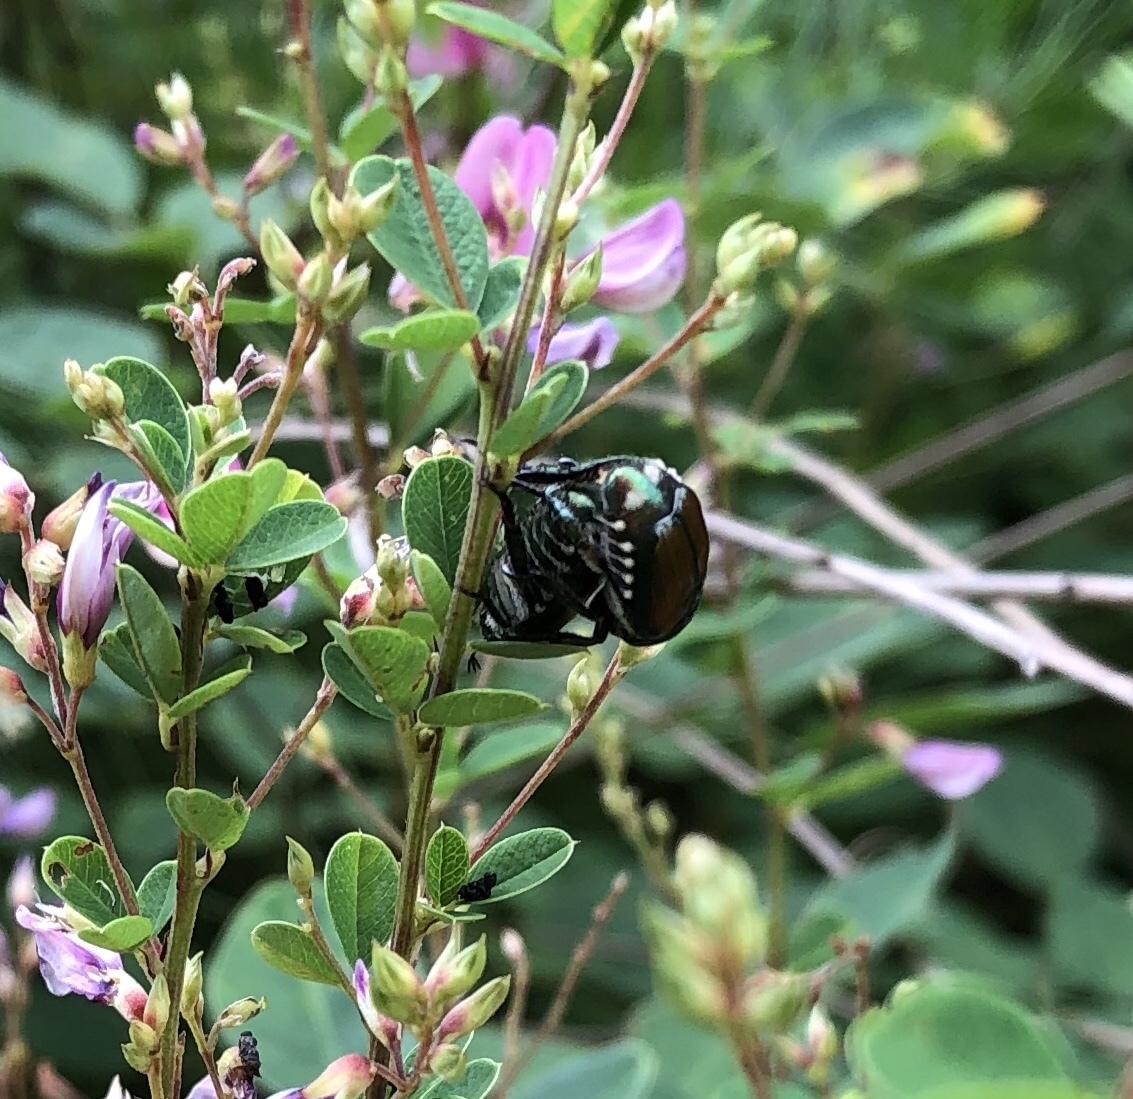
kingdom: Animalia
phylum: Arthropoda
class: Insecta
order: Coleoptera
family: Scarabaeidae
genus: Popillia
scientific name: Popillia japonica
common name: Japanese beetle
